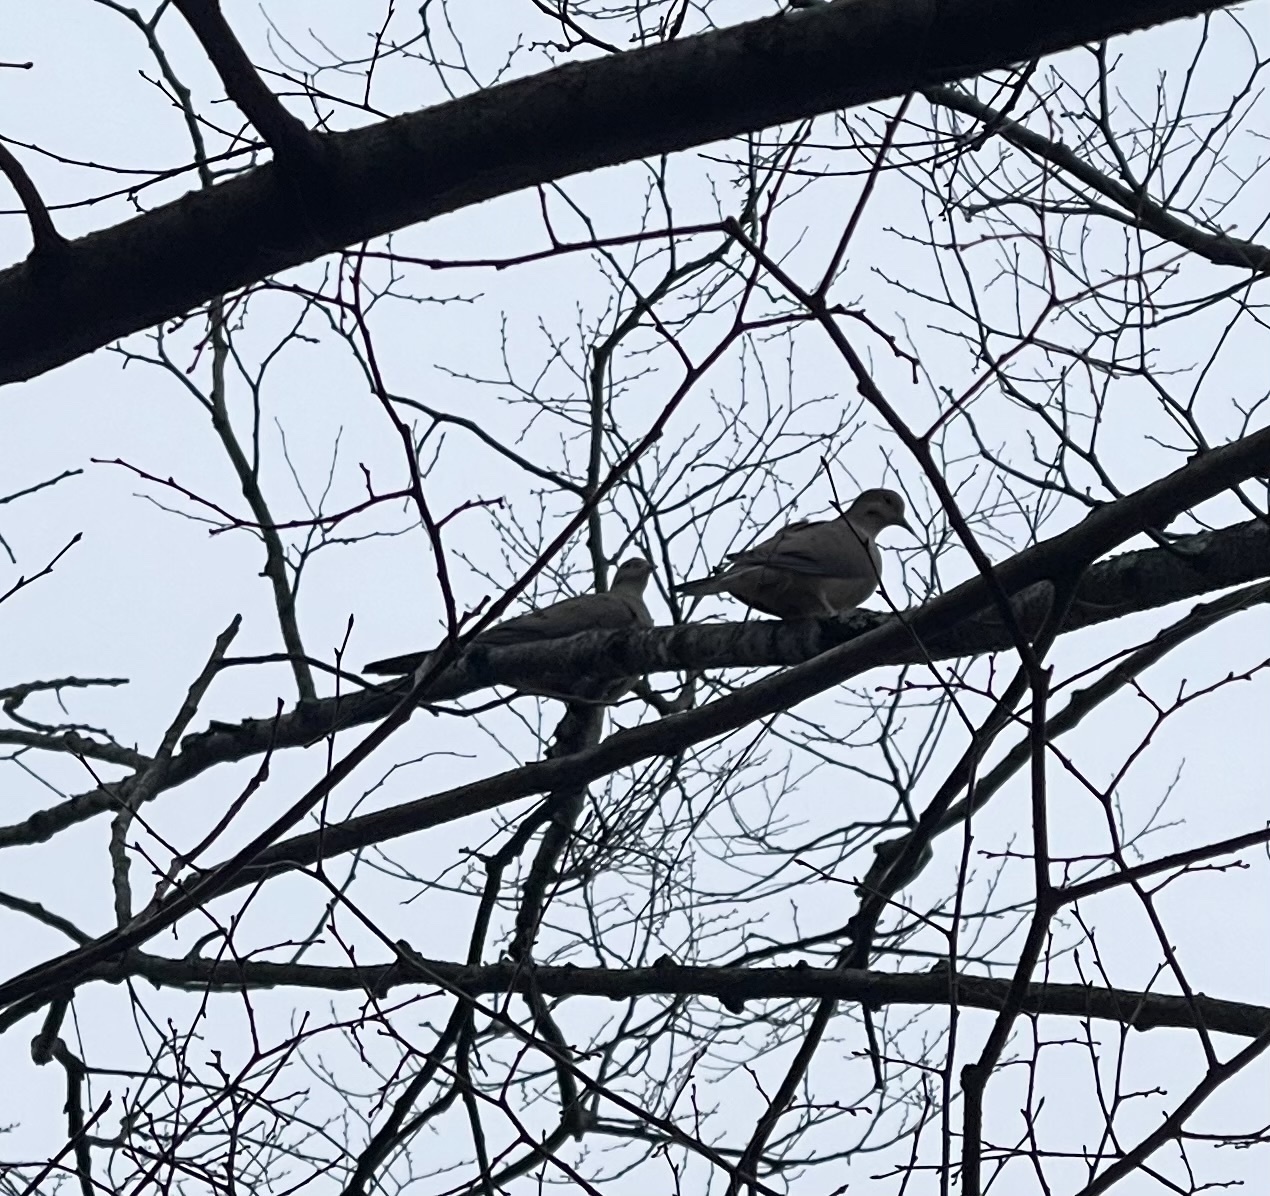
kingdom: Animalia
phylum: Chordata
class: Aves
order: Columbiformes
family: Columbidae
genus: Zenaida
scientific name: Zenaida macroura
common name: Mourning dove
